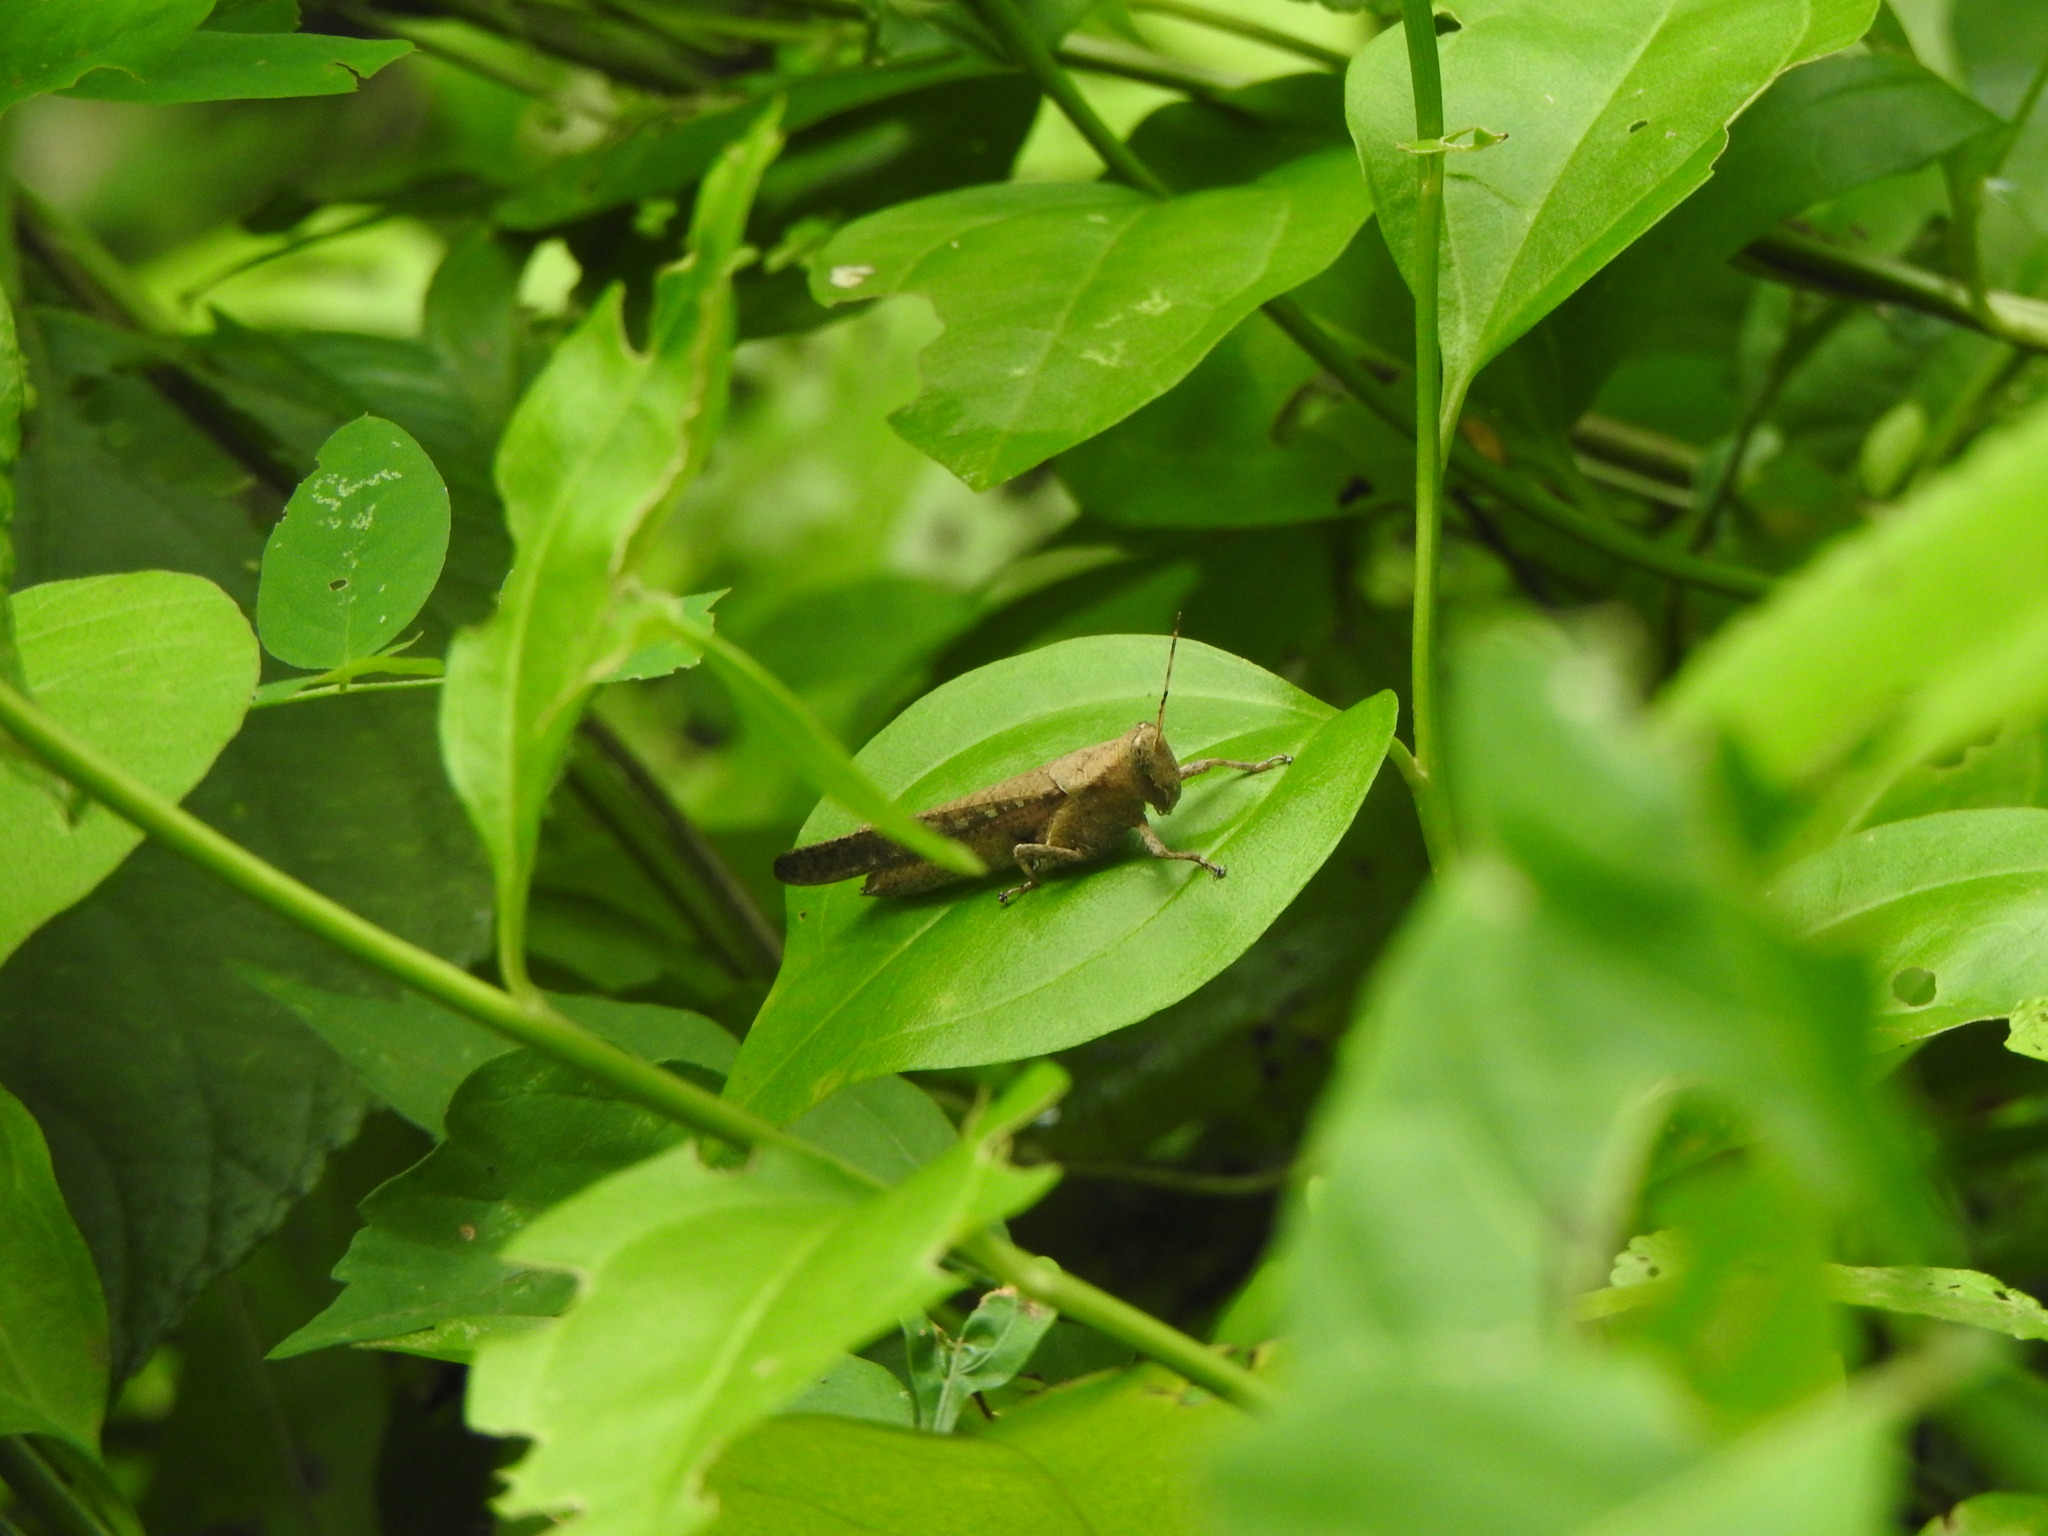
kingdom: Animalia
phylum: Arthropoda
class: Insecta
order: Orthoptera
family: Acrididae
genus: Abracris
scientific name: Abracris flavolineata
